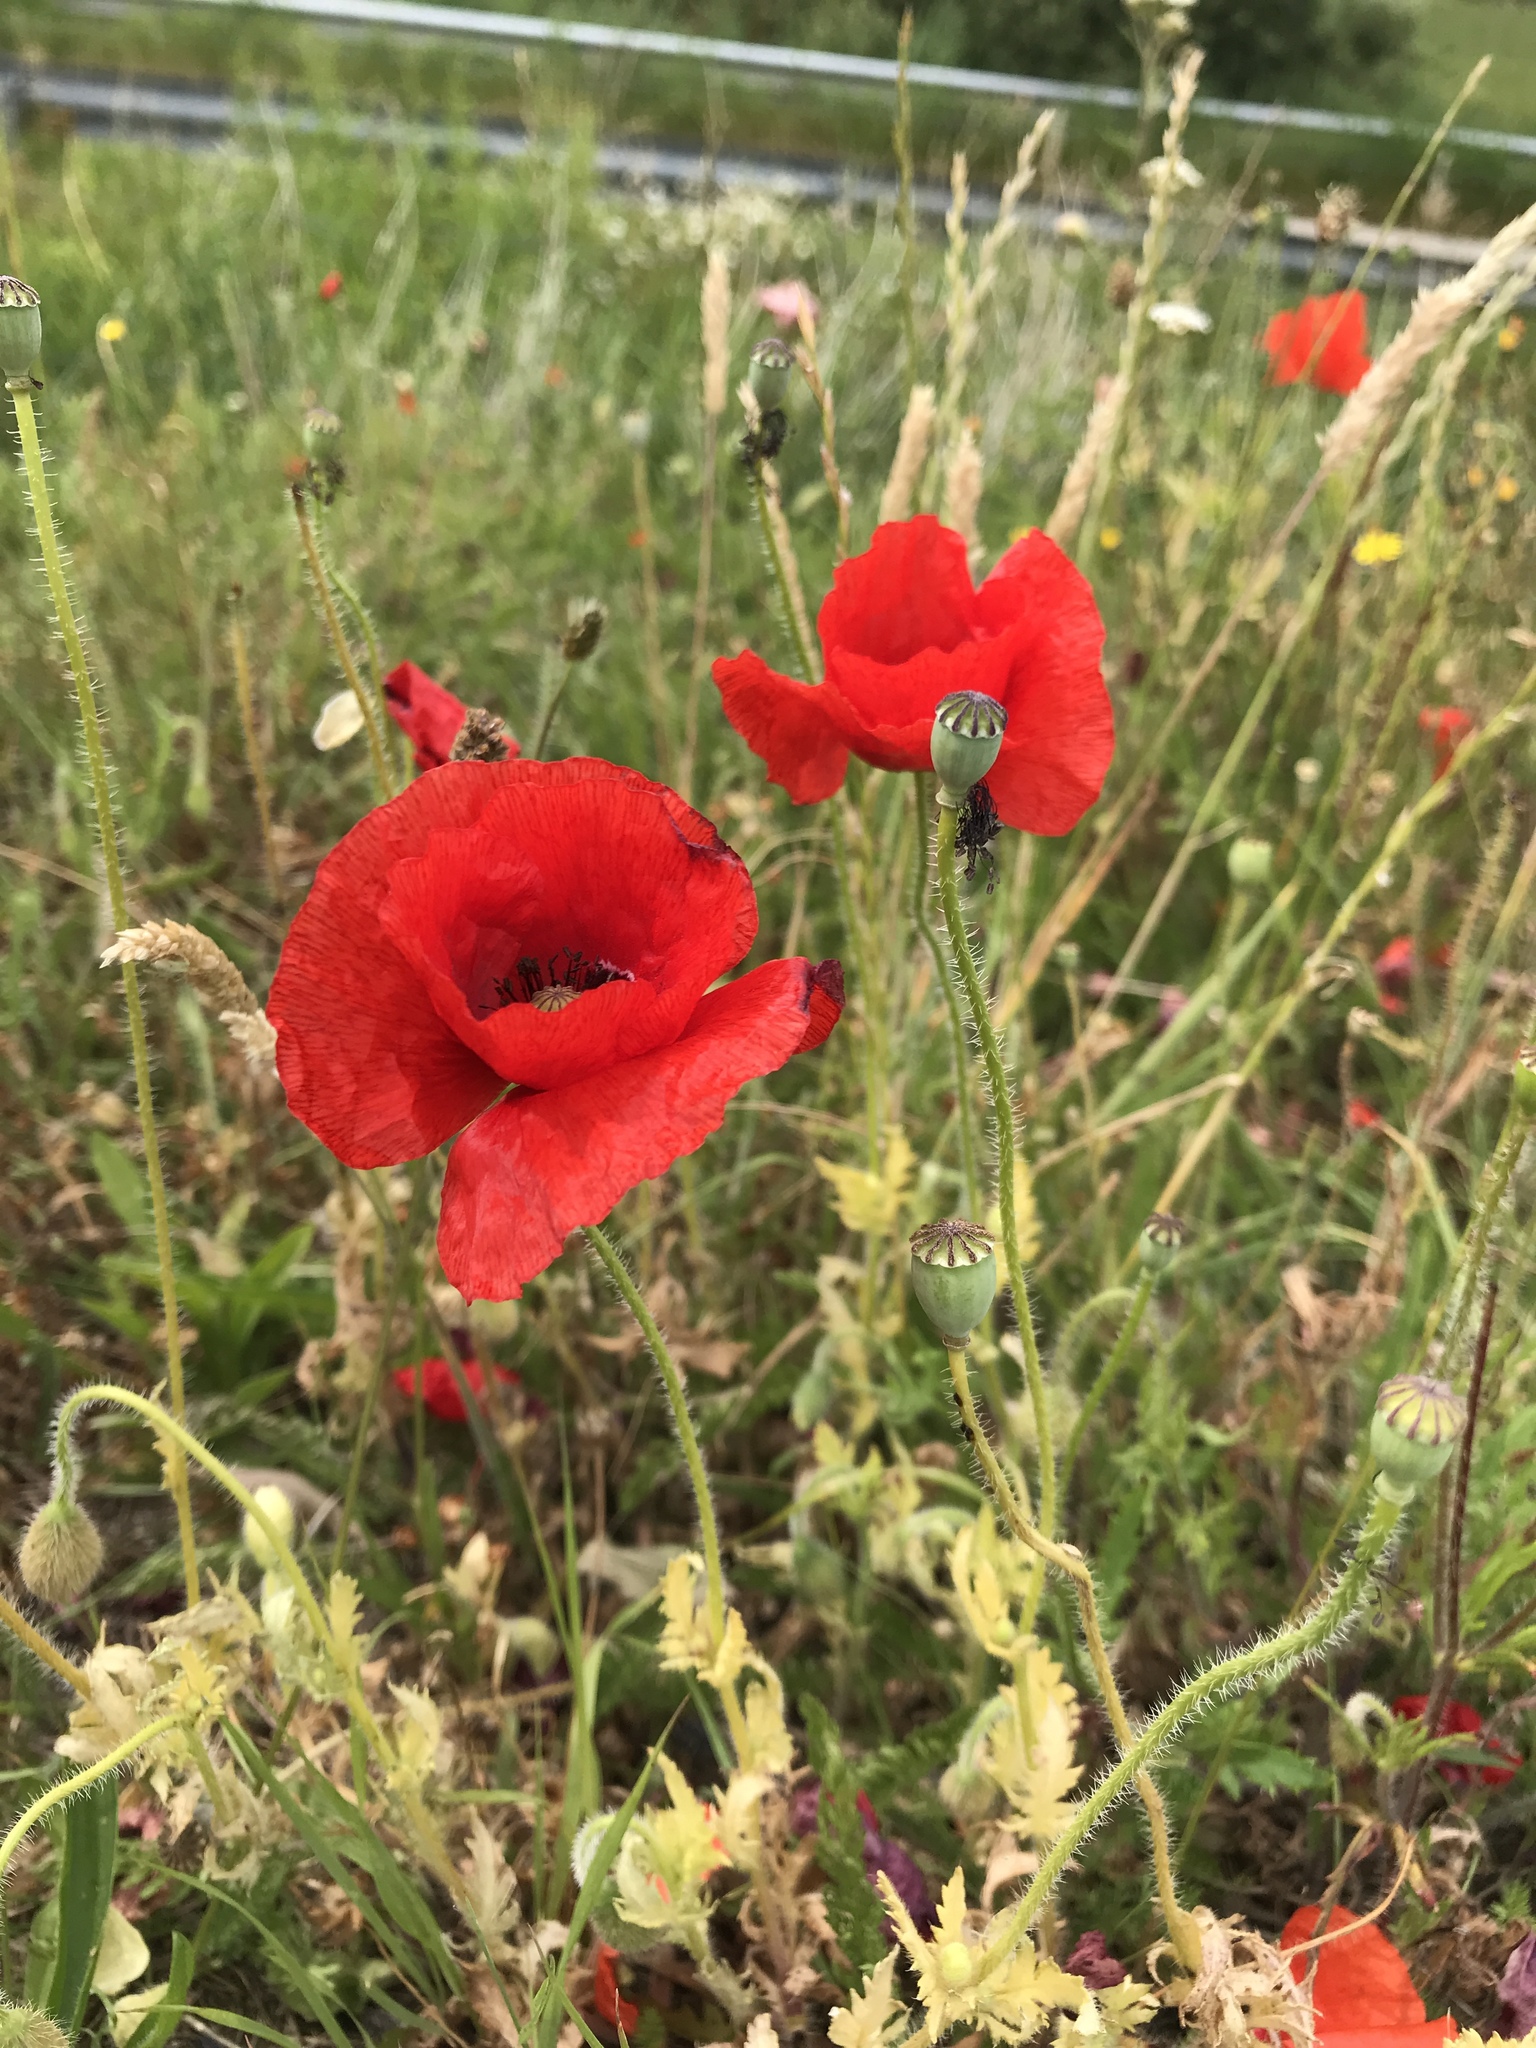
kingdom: Plantae
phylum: Tracheophyta
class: Magnoliopsida
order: Ranunculales
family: Papaveraceae
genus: Papaver
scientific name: Papaver rhoeas
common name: Corn poppy
